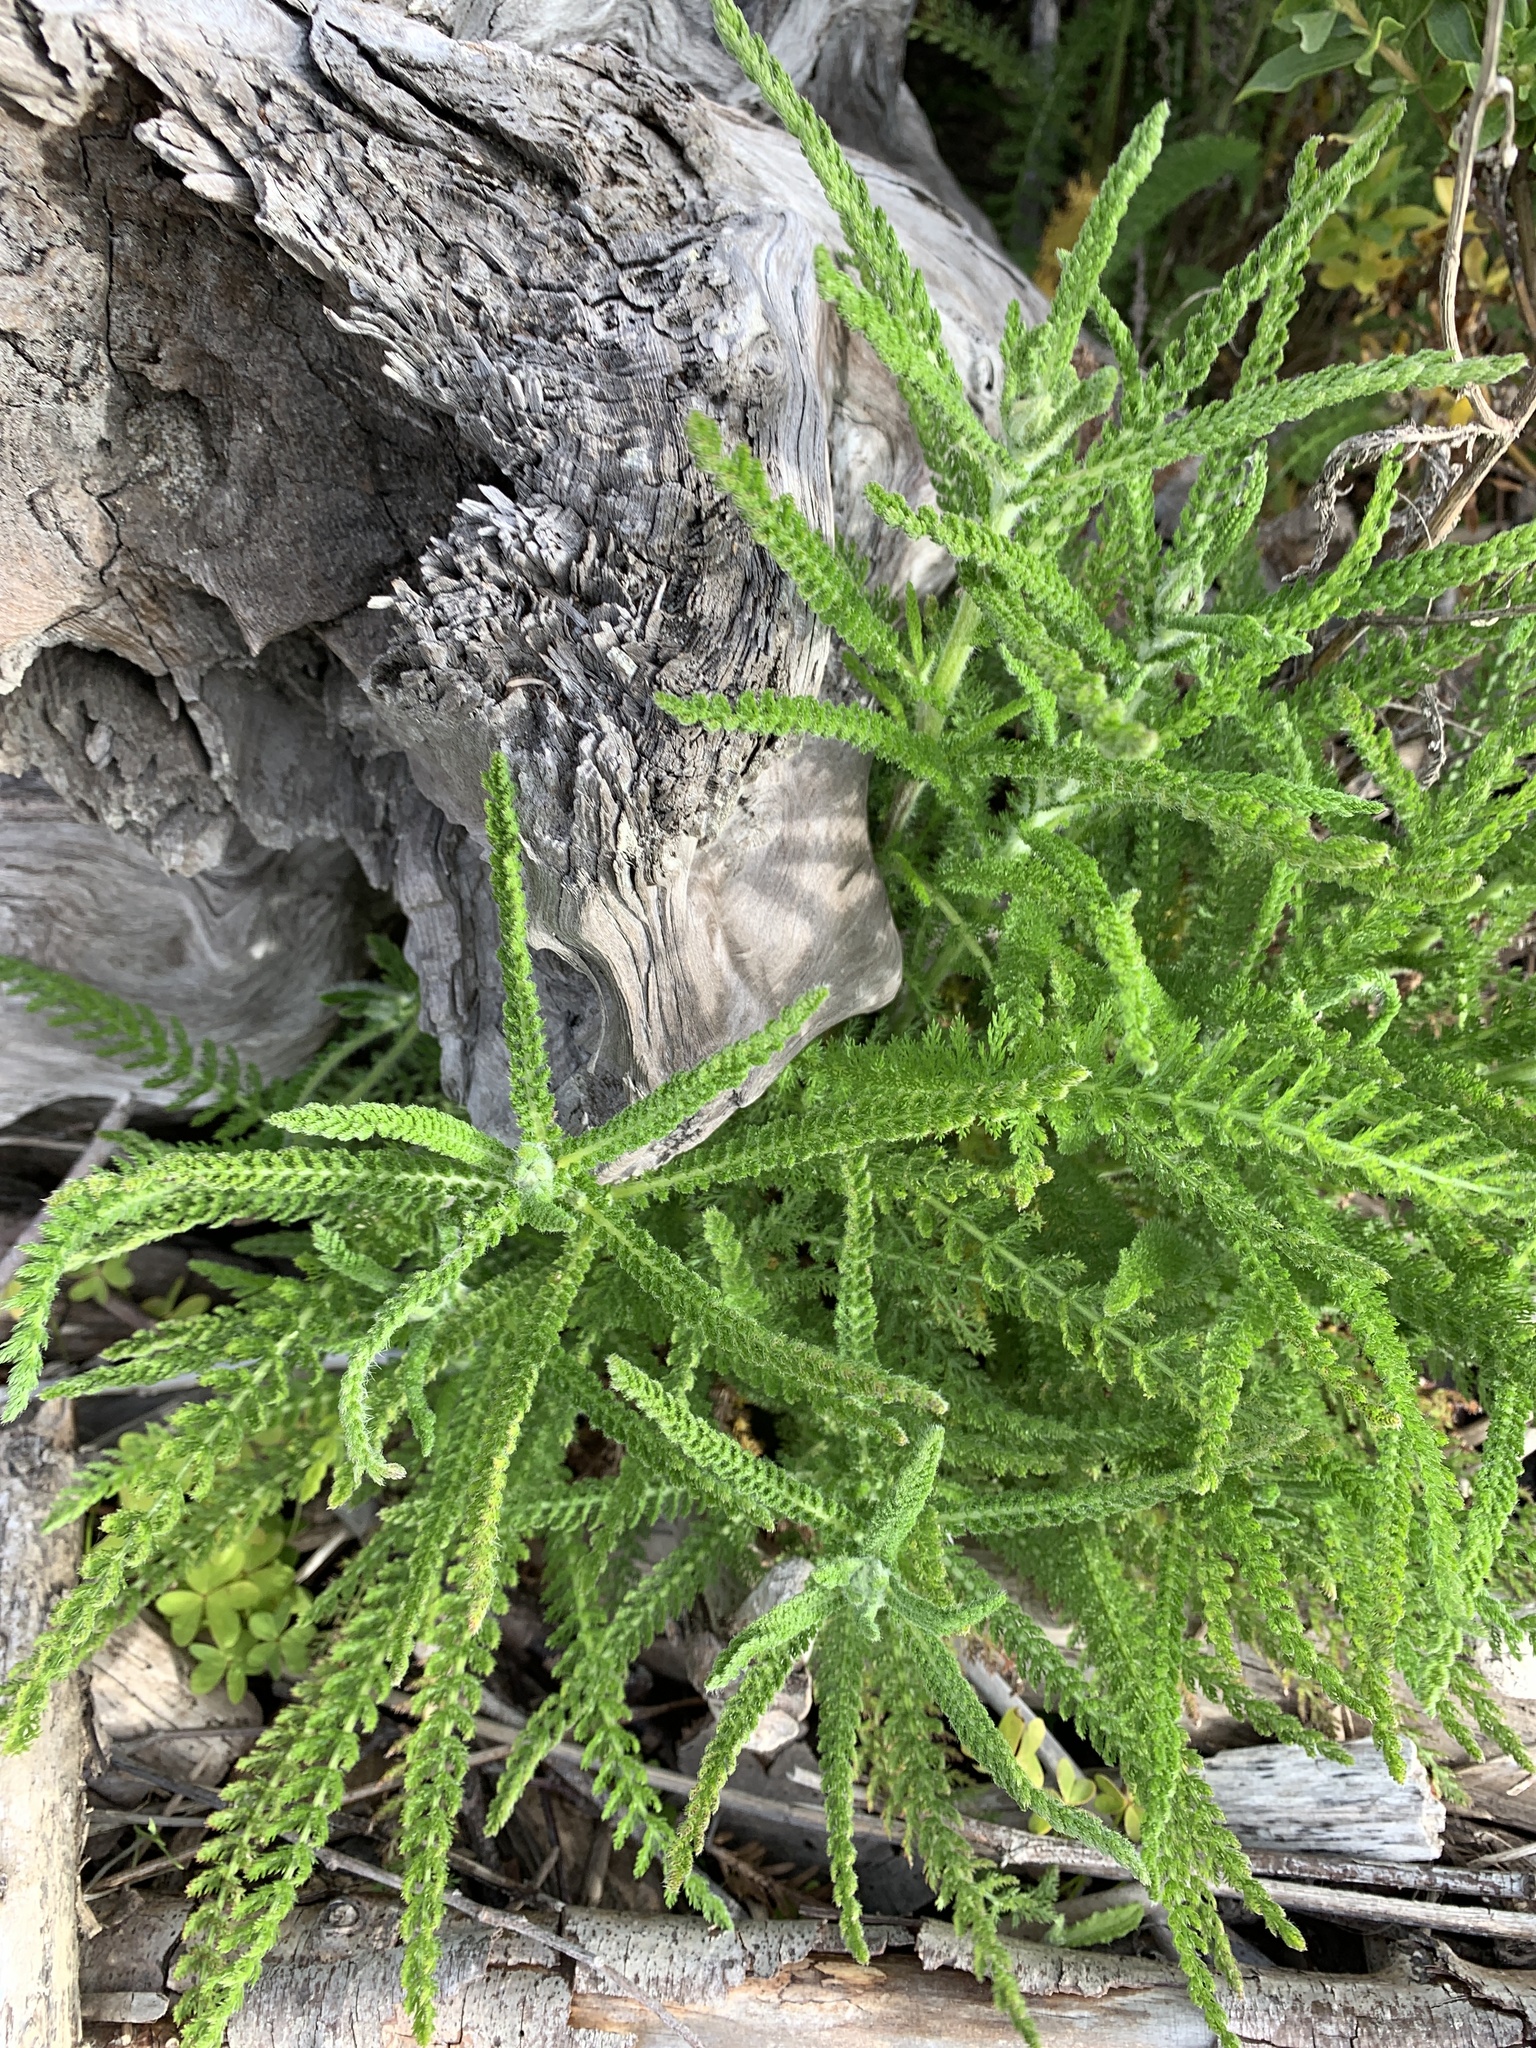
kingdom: Plantae
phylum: Tracheophyta
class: Magnoliopsida
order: Asterales
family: Asteraceae
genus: Achillea
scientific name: Achillea millefolium
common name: Yarrow
